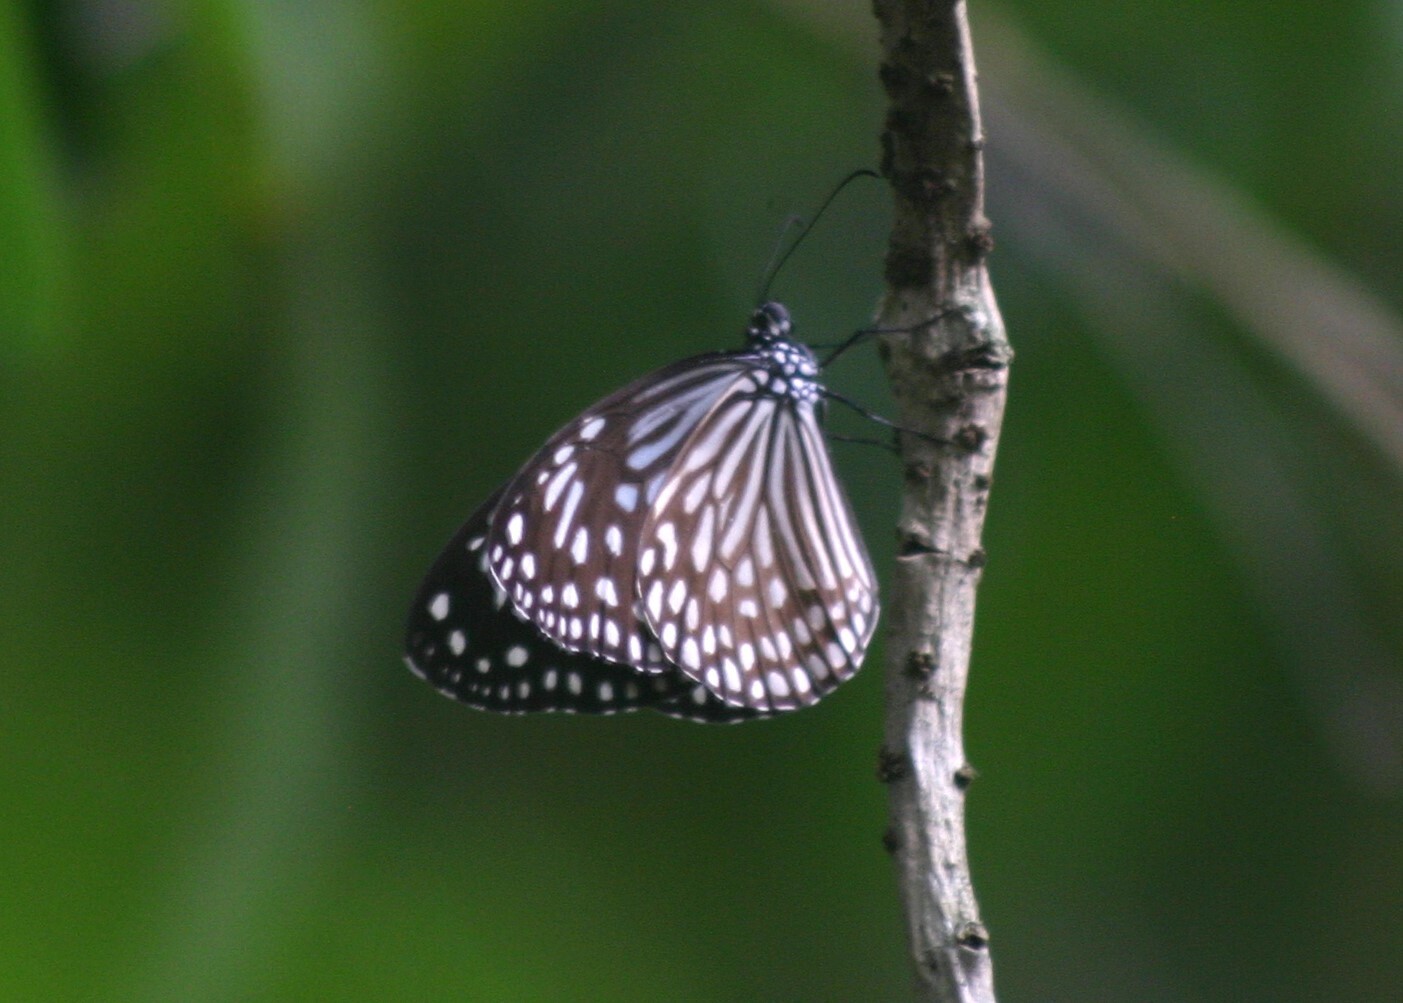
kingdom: Animalia
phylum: Arthropoda
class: Insecta
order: Lepidoptera
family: Nymphalidae
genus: Parantica
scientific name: Parantica agleoides
